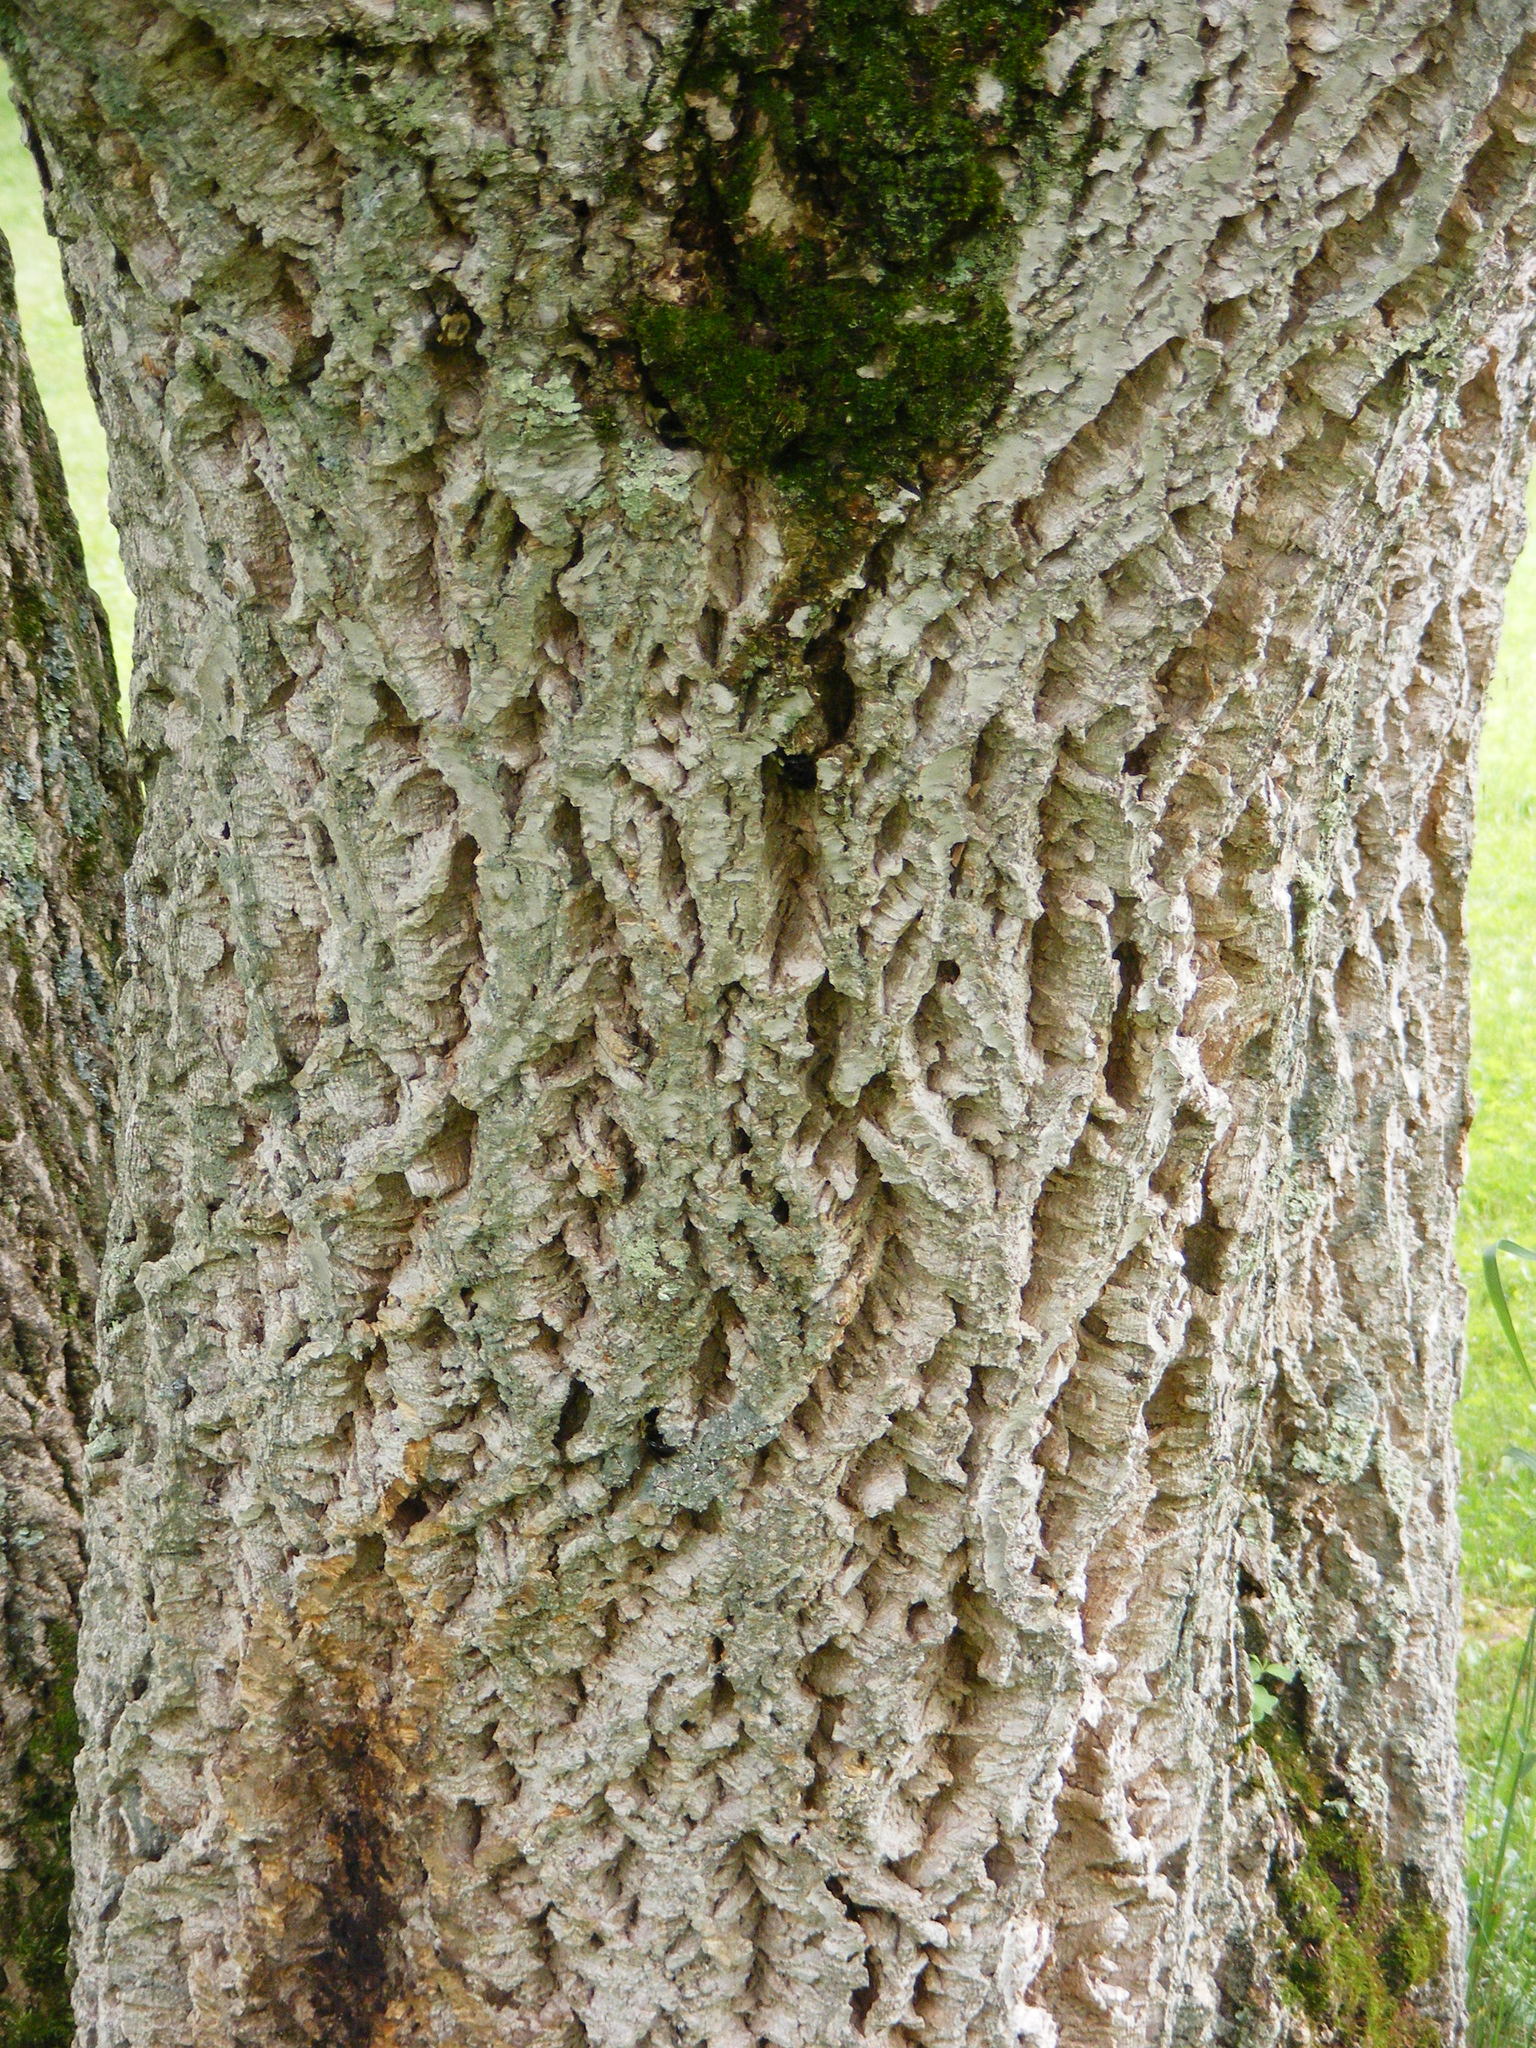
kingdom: Plantae
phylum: Tracheophyta
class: Magnoliopsida
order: Rosales
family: Cannabaceae
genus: Celtis
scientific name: Celtis occidentalis
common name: Common hackberry
